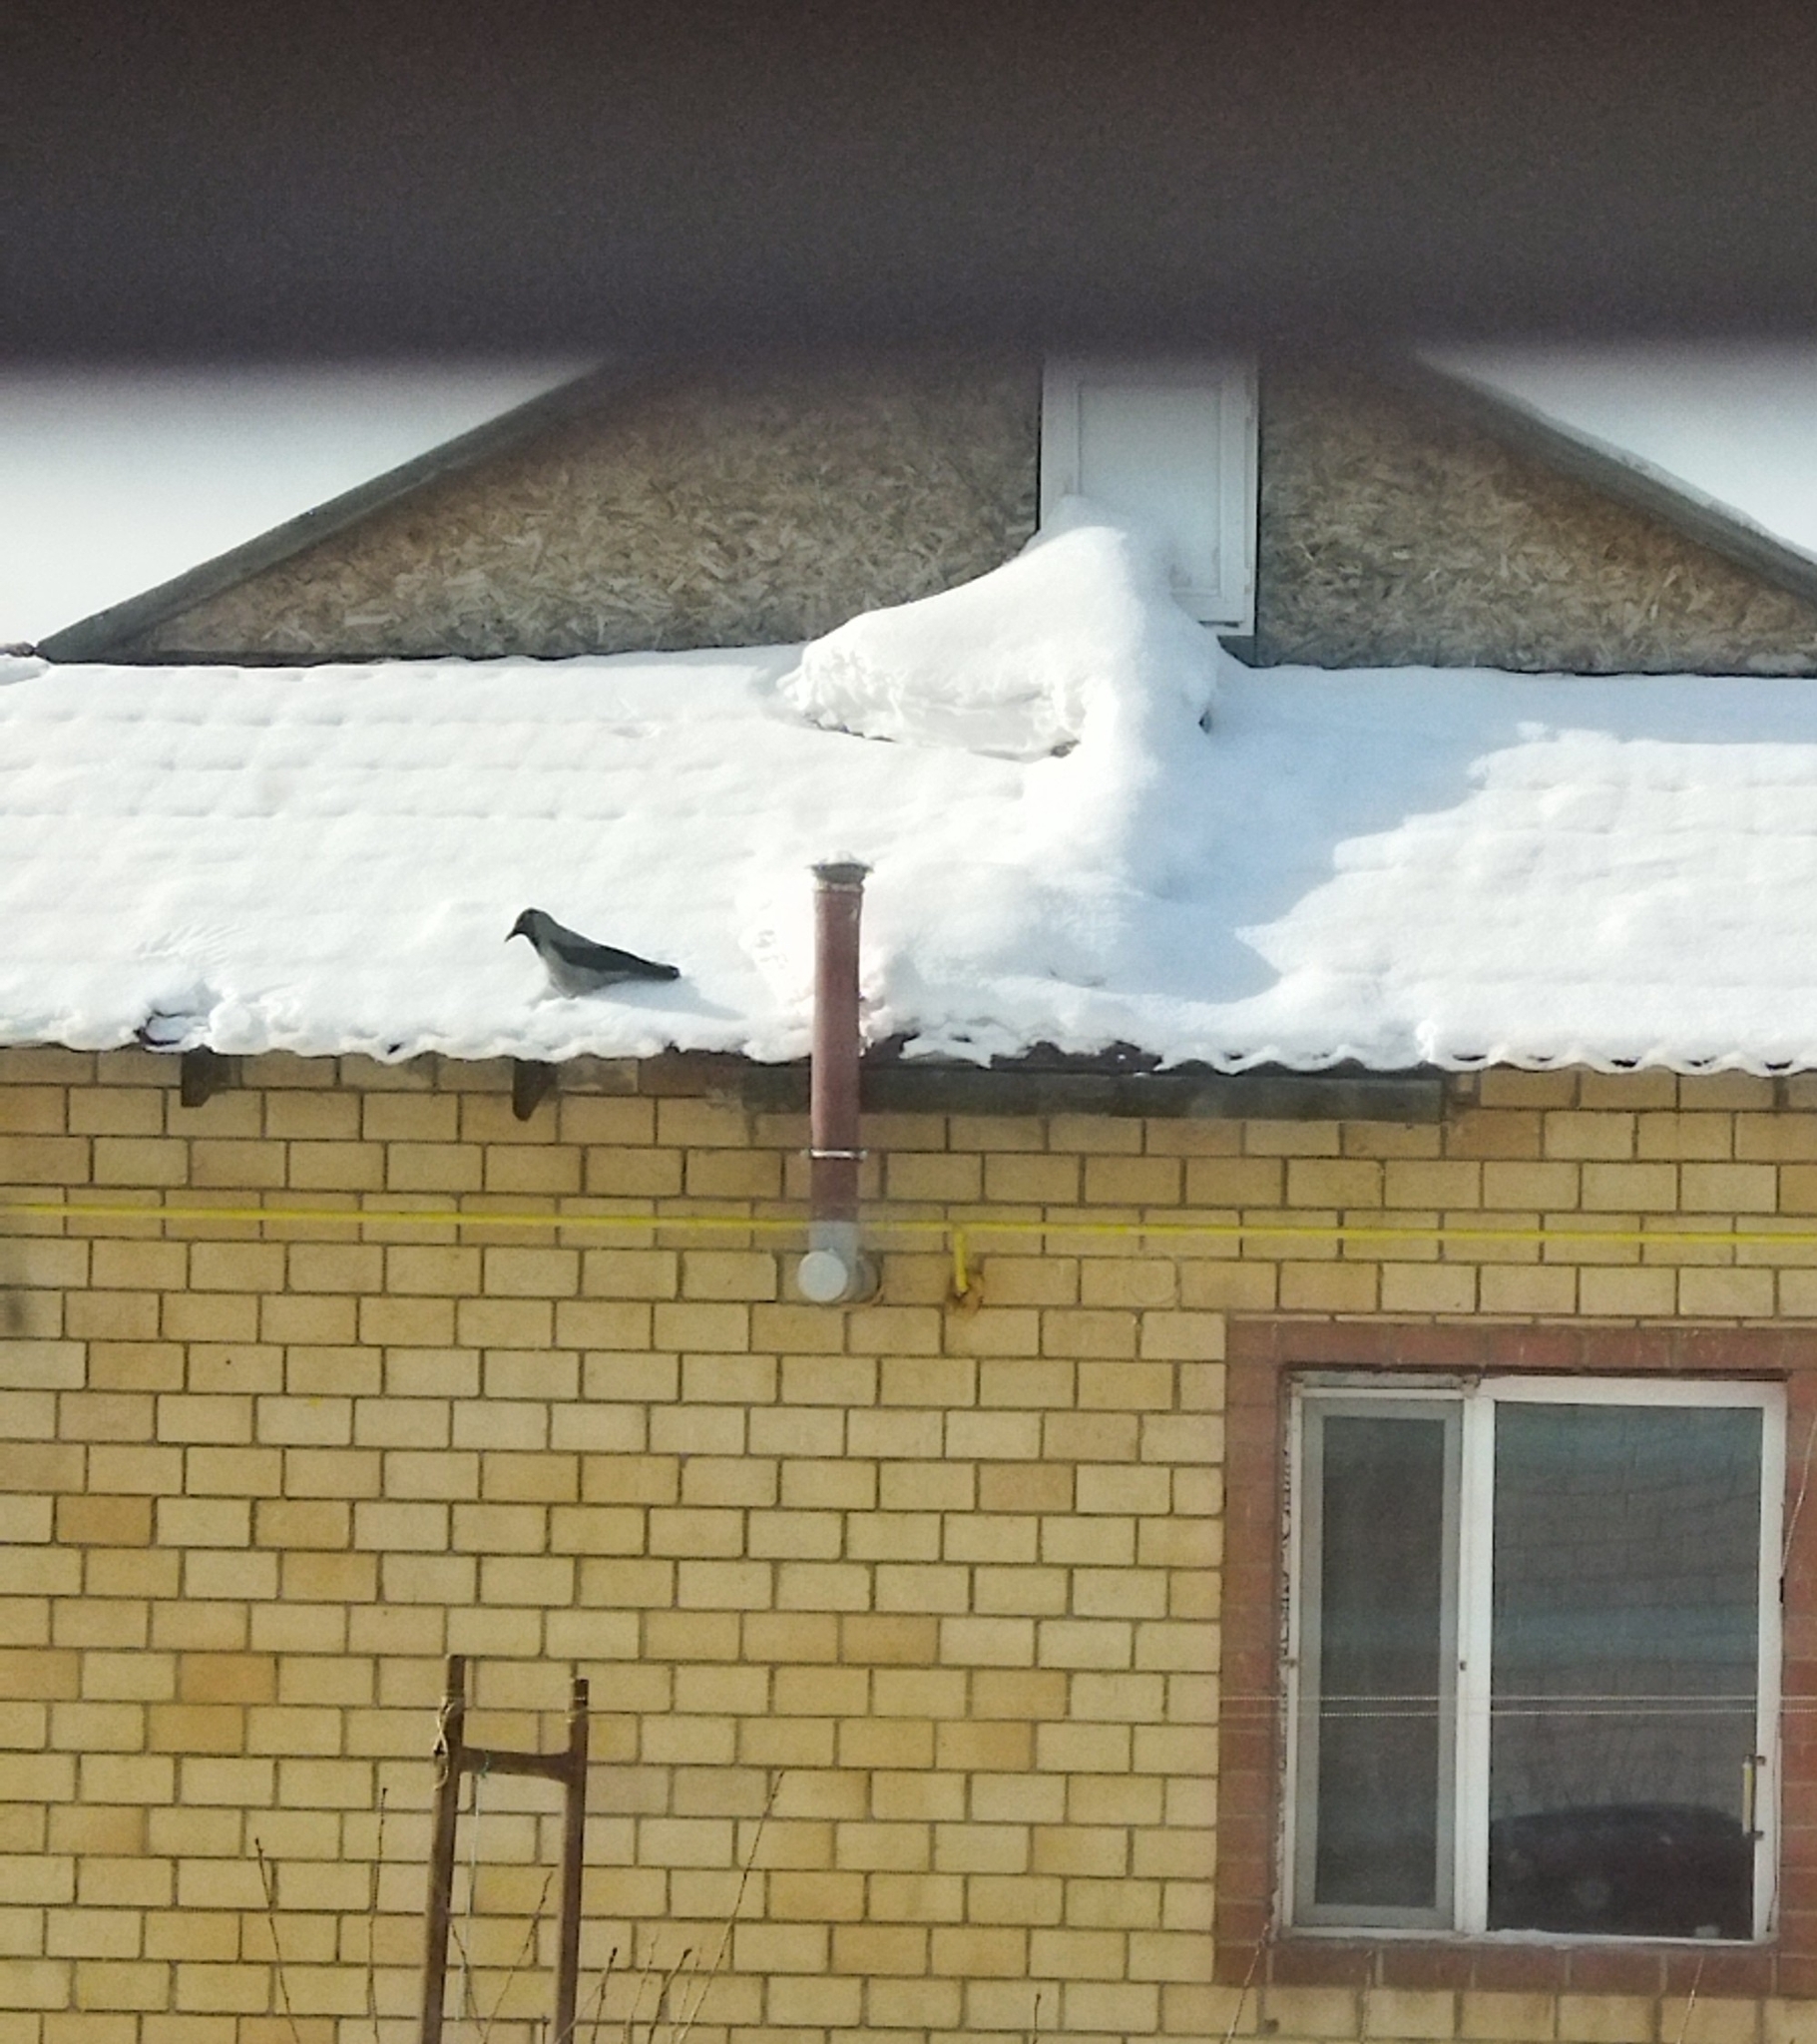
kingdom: Animalia
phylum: Chordata
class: Aves
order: Passeriformes
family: Corvidae
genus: Corvus
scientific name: Corvus cornix
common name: Hooded crow
